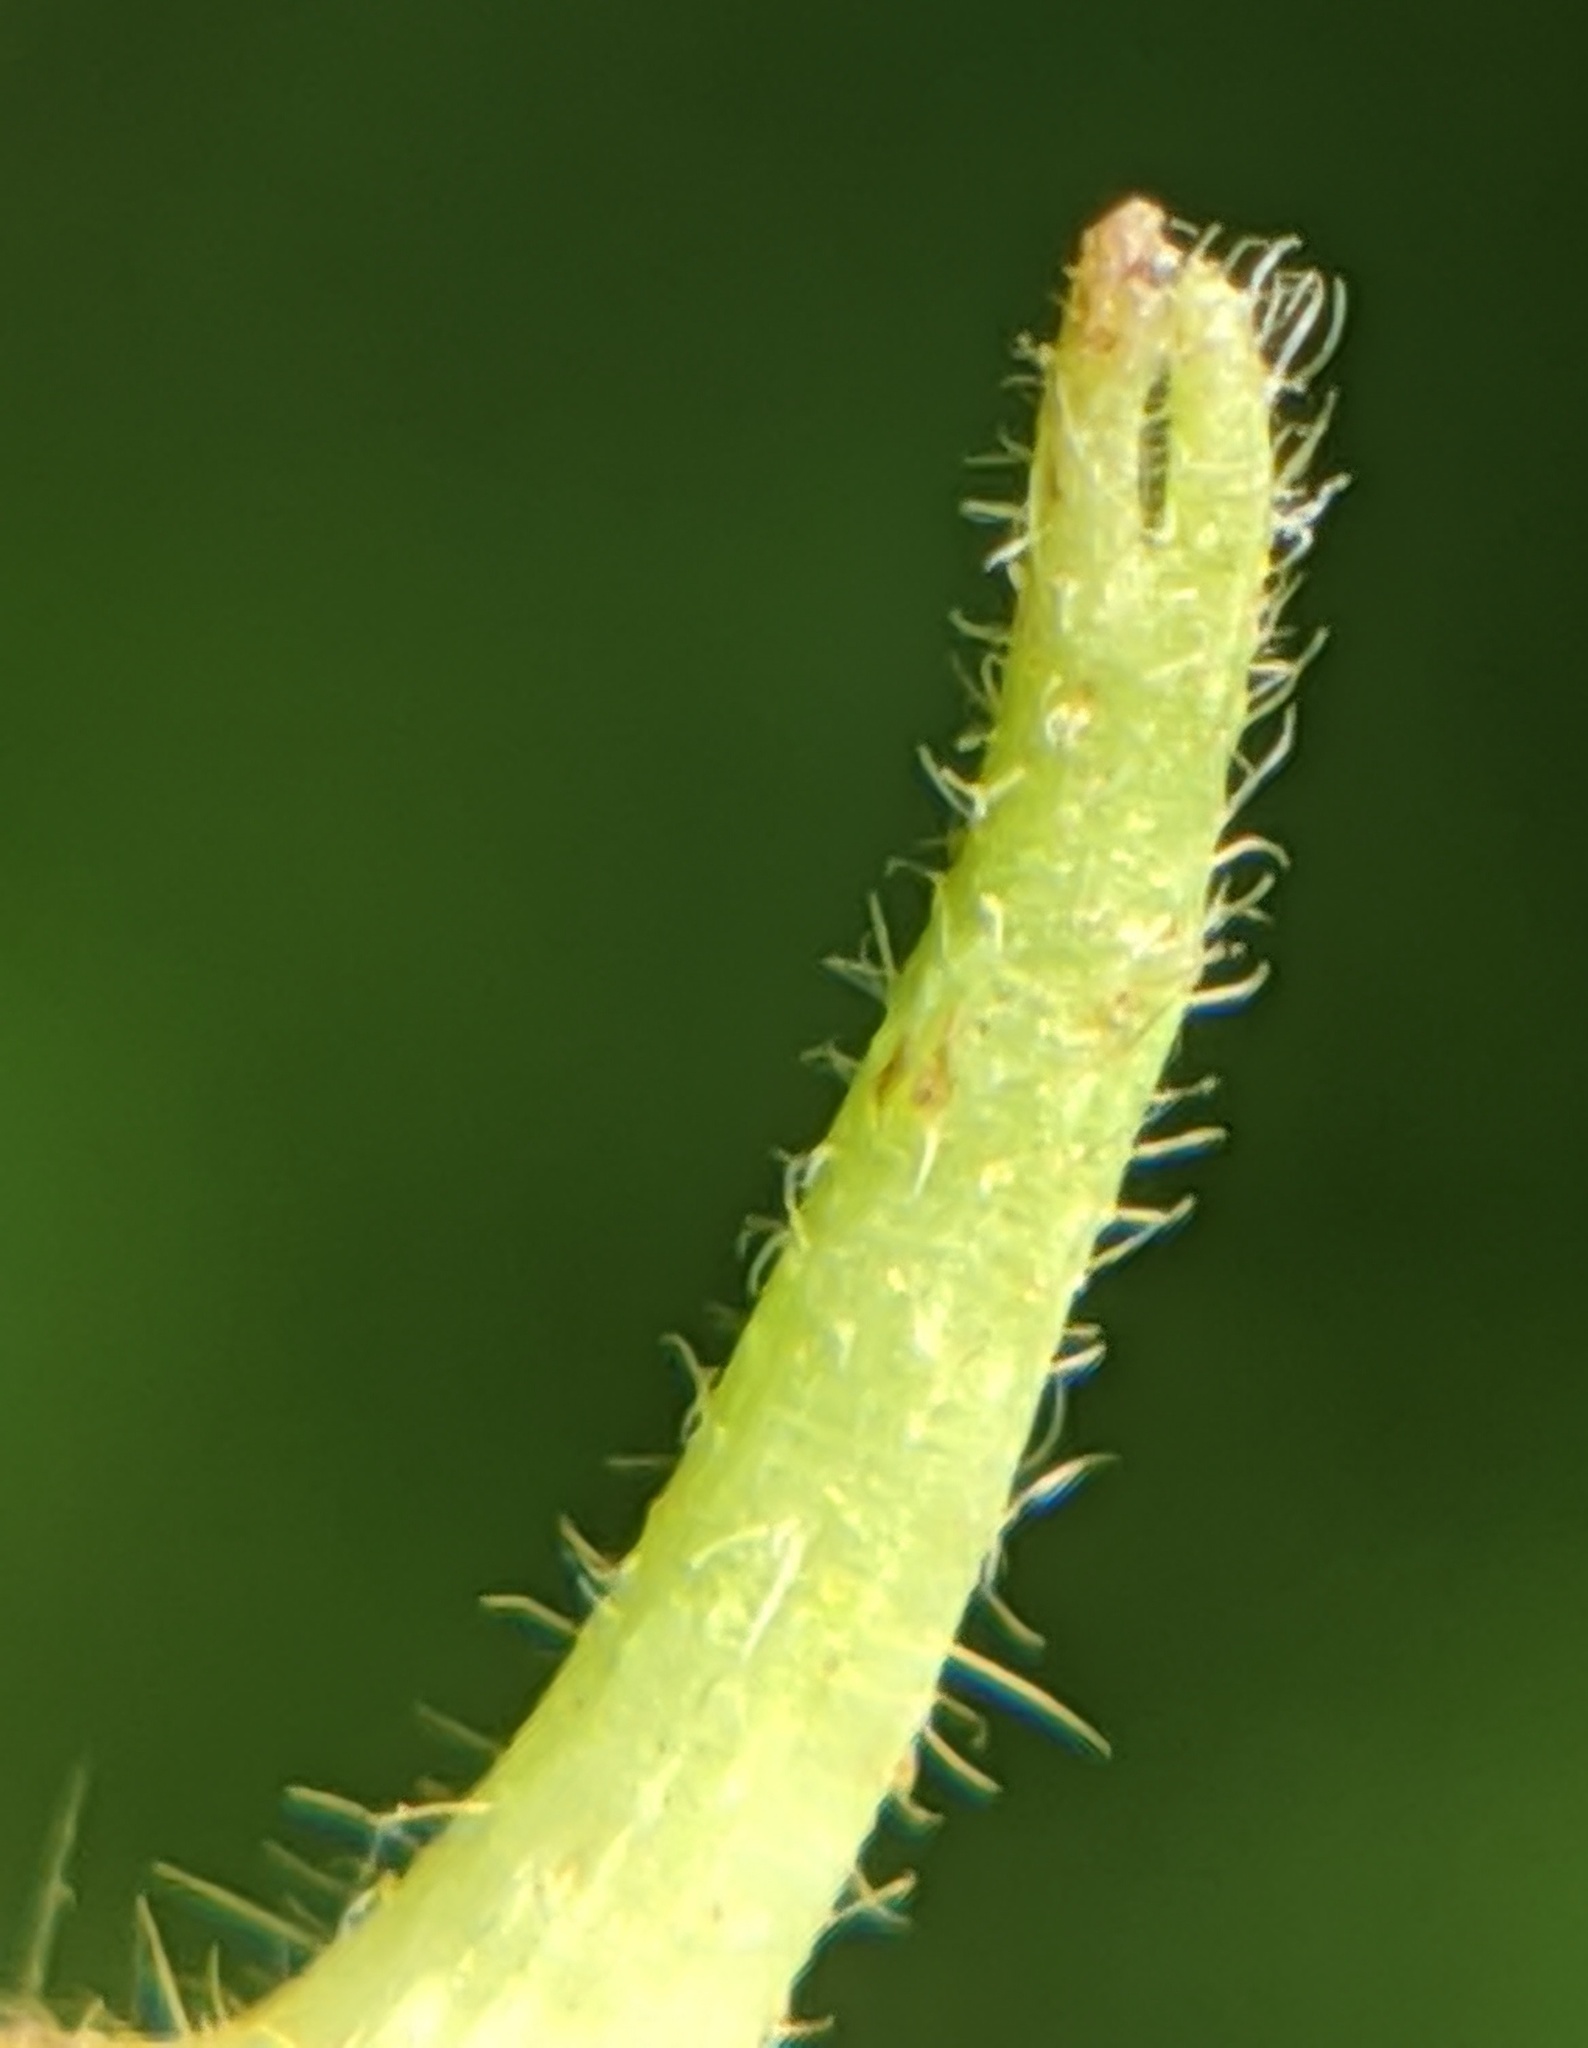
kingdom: Animalia
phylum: Arthropoda
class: Insecta
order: Diptera
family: Cecidomyiidae
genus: Caryomyia
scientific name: Caryomyia ansericollum
